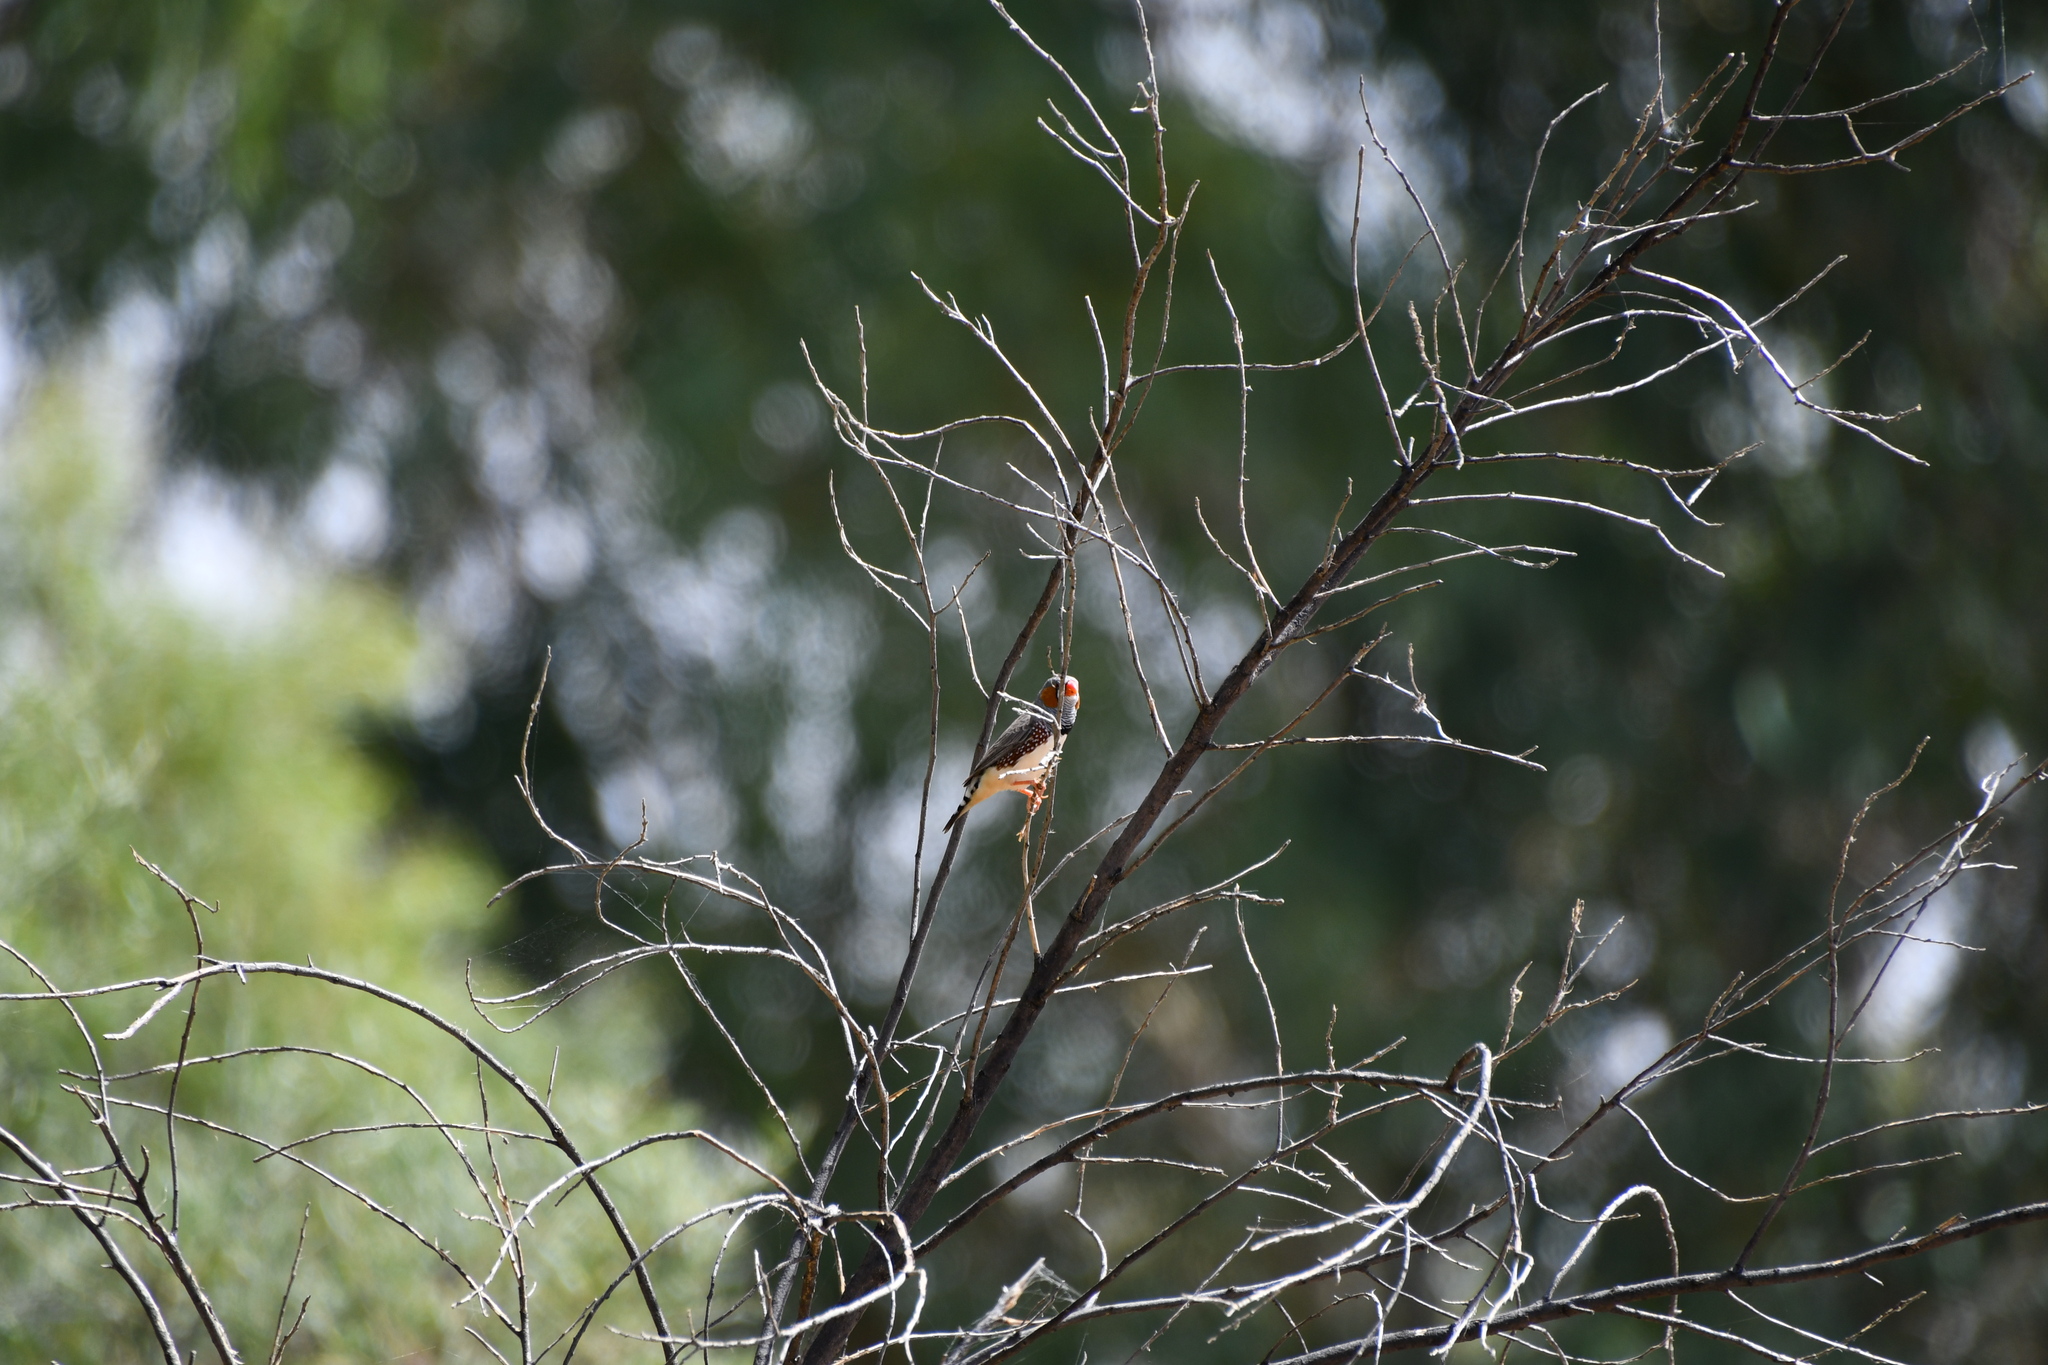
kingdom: Animalia
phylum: Chordata
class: Aves
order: Passeriformes
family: Estrildidae
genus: Taeniopygia
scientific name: Taeniopygia guttata
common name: Zebra finch
